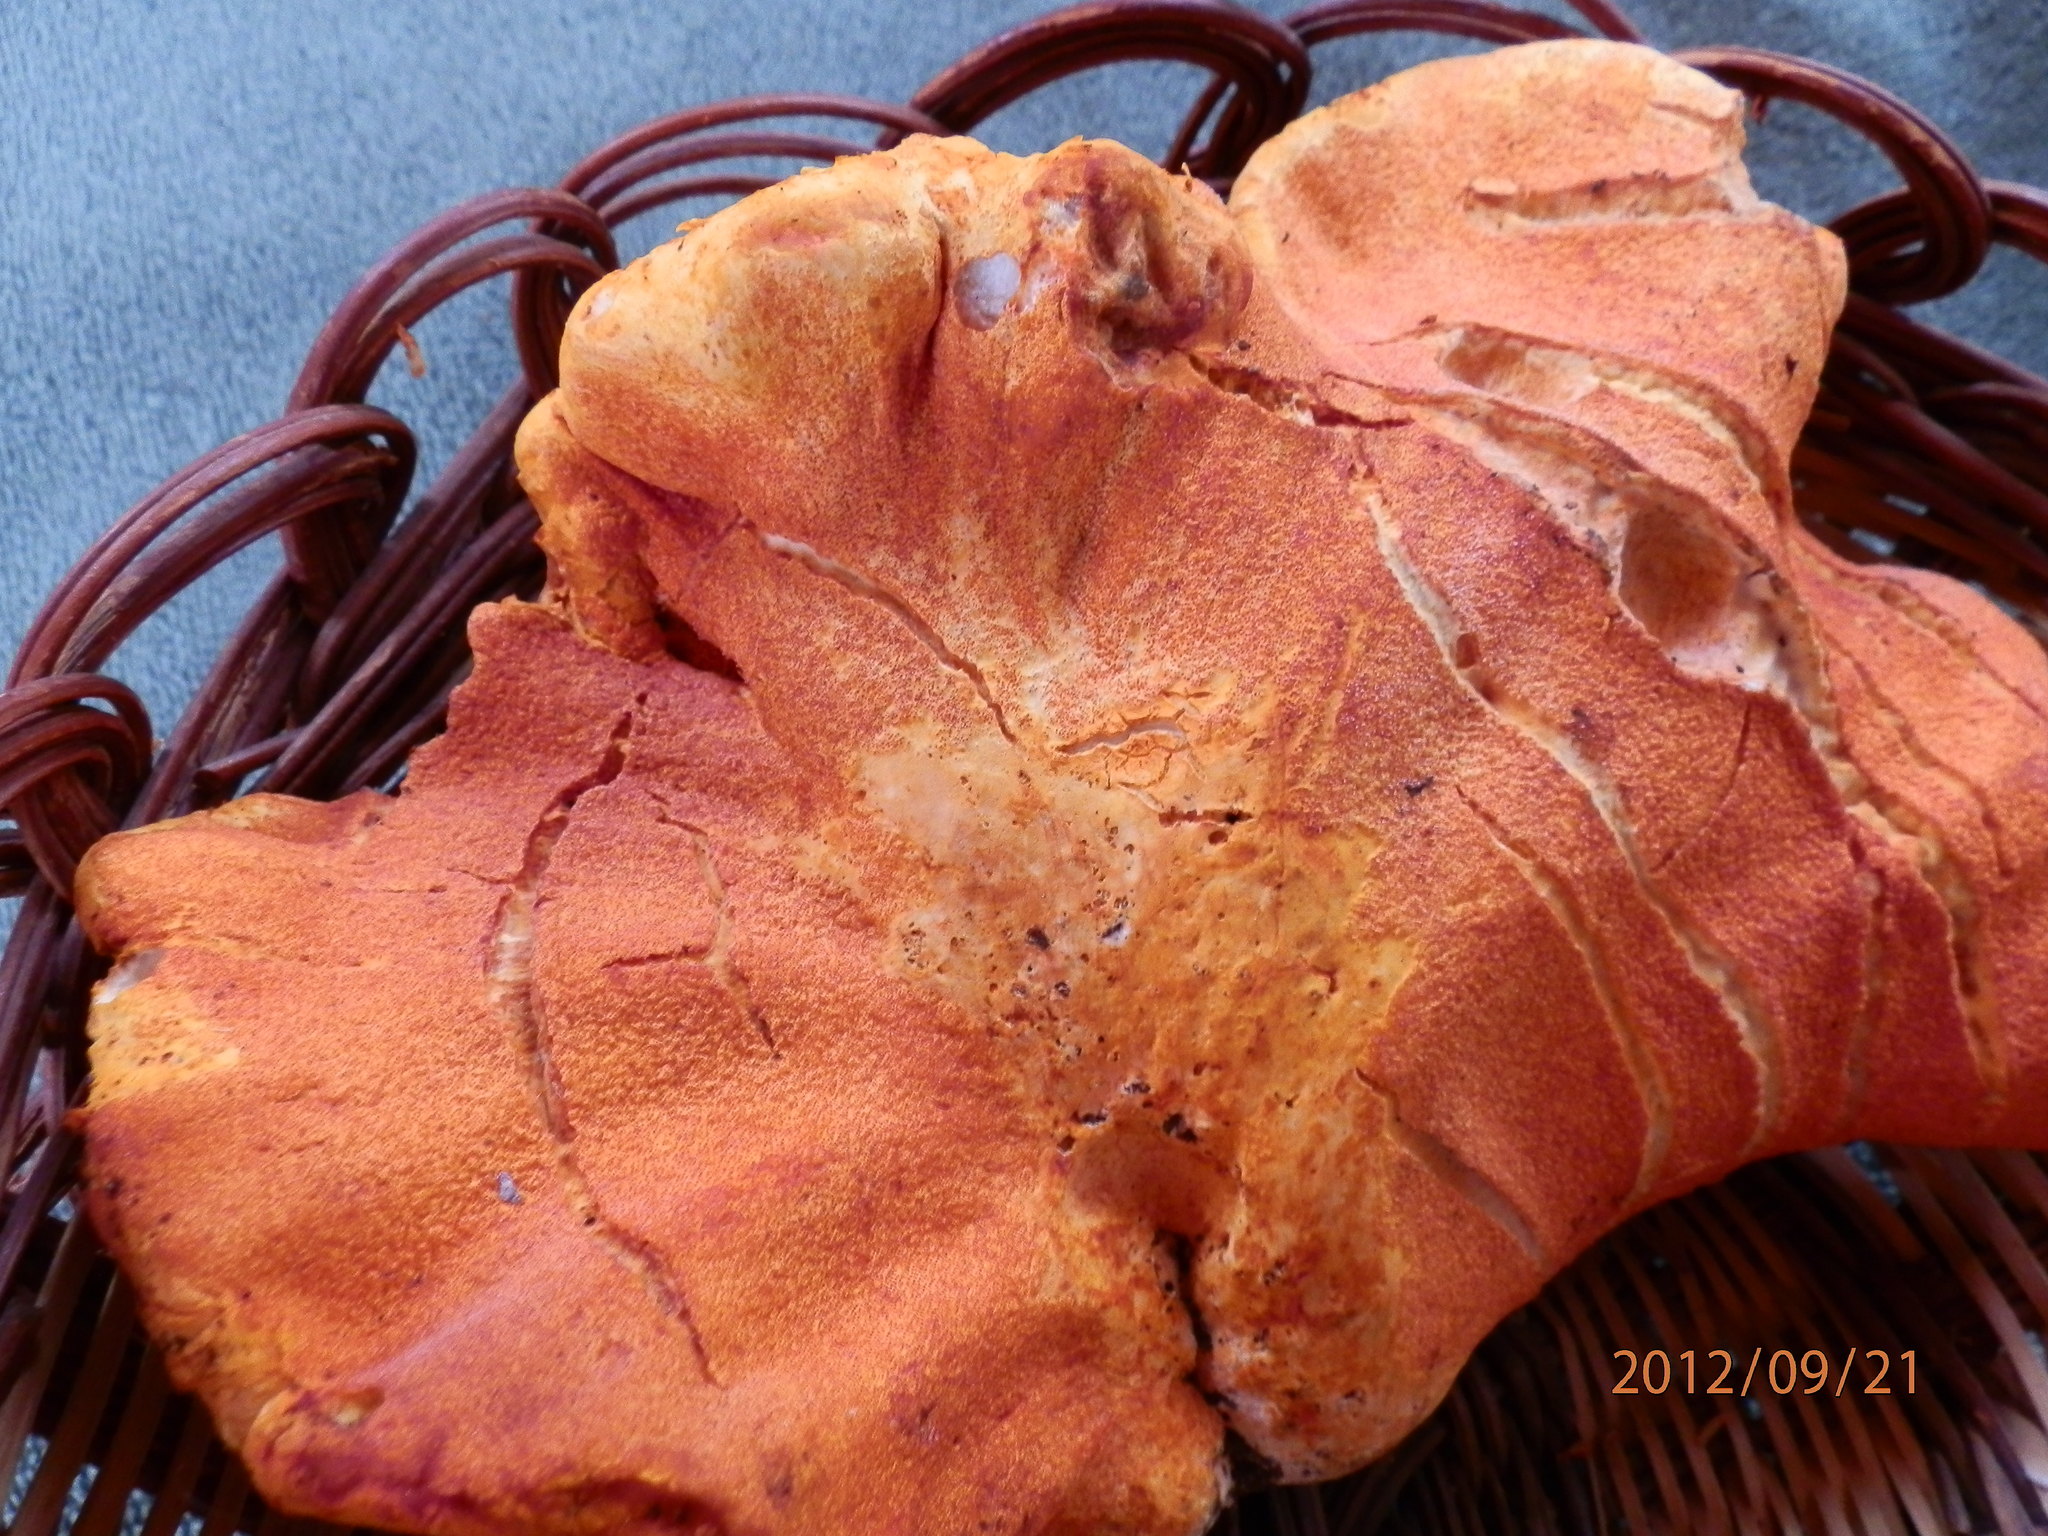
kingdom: Fungi
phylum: Ascomycota
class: Sordariomycetes
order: Hypocreales
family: Hypocreaceae
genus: Hypomyces
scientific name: Hypomyces lactifluorum
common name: Lobster mushroom
